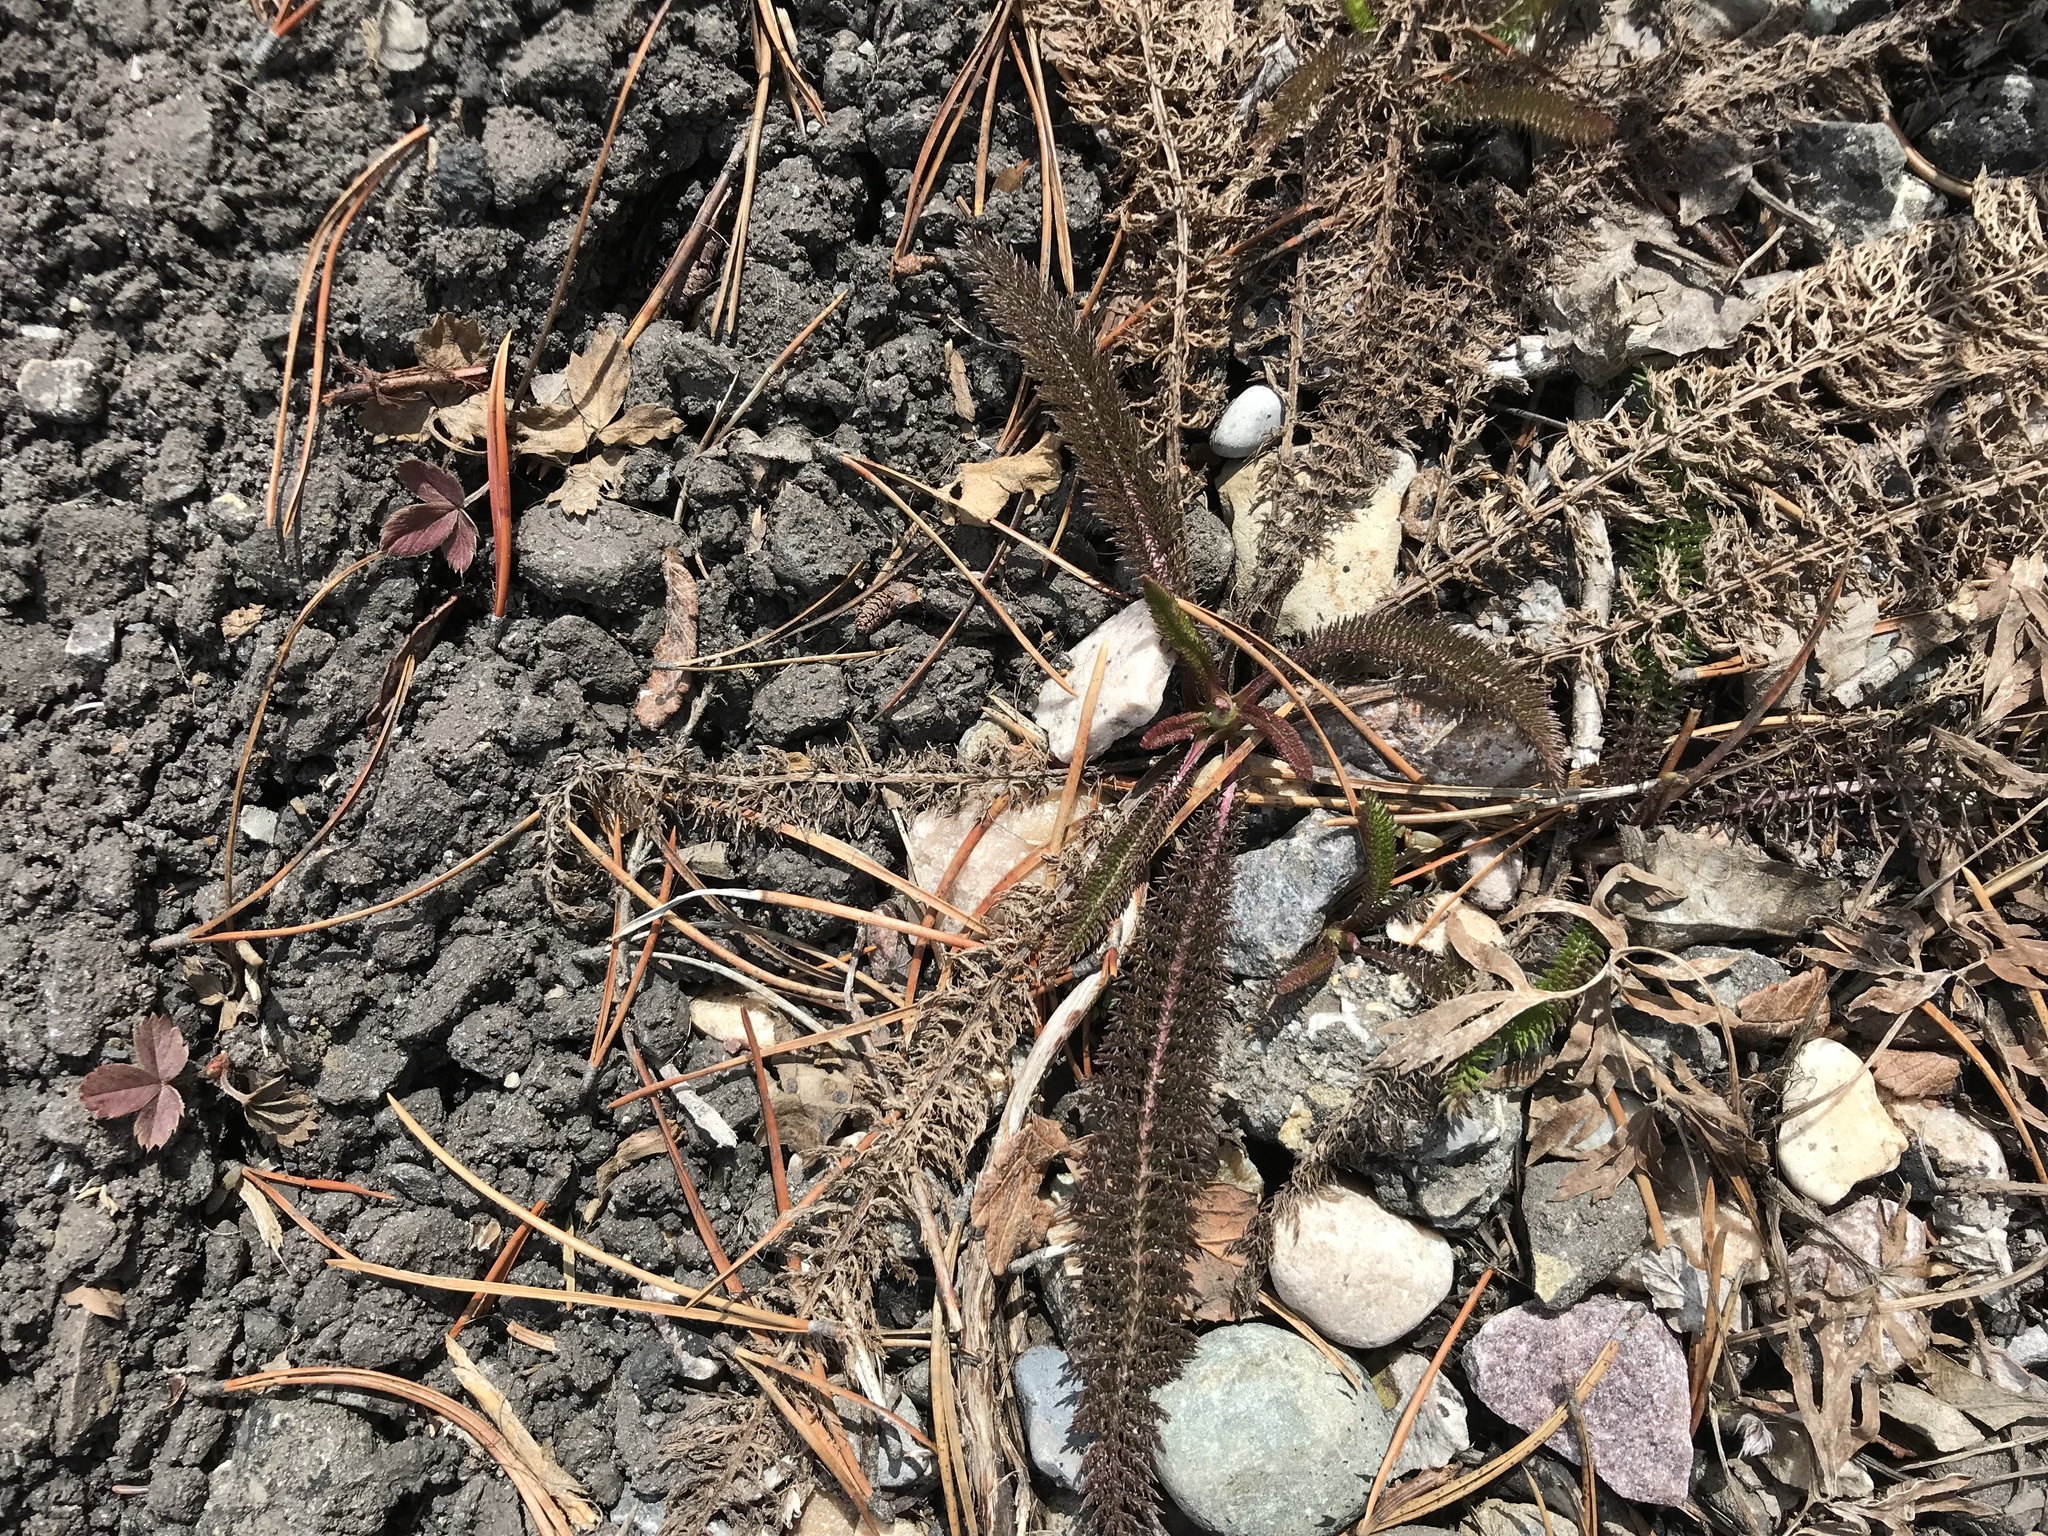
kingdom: Plantae
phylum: Tracheophyta
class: Magnoliopsida
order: Asterales
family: Asteraceae
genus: Achillea
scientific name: Achillea millefolium
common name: Yarrow
